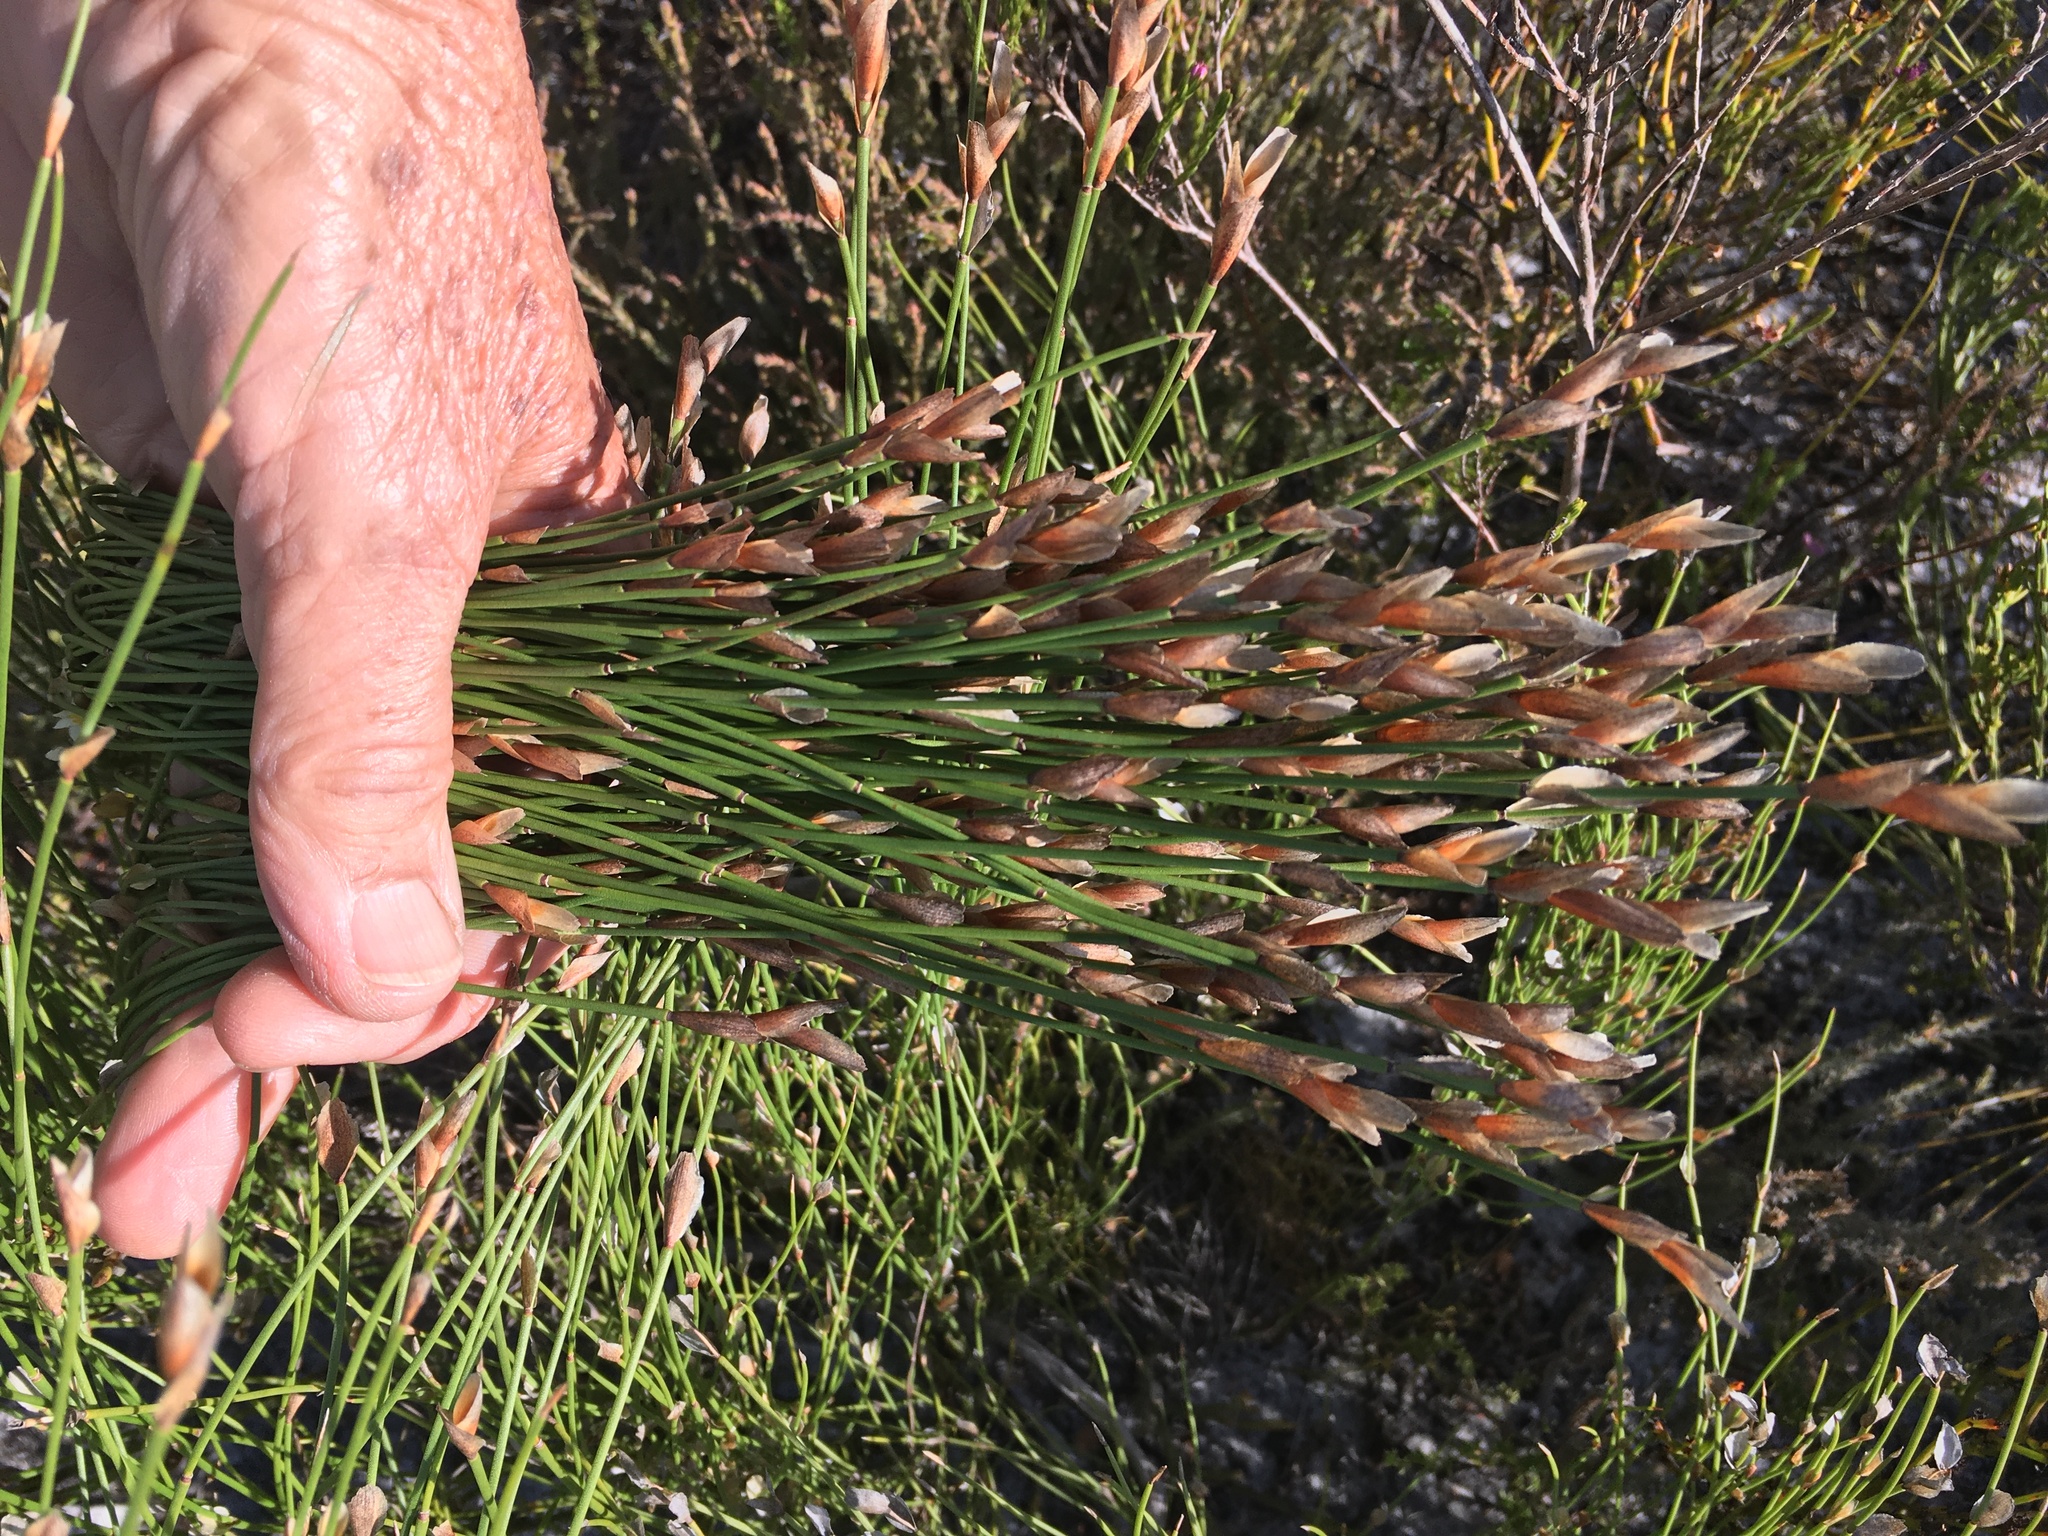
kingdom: Plantae
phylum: Tracheophyta
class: Liliopsida
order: Poales
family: Restionaceae
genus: Elegia
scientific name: Elegia stipularis
